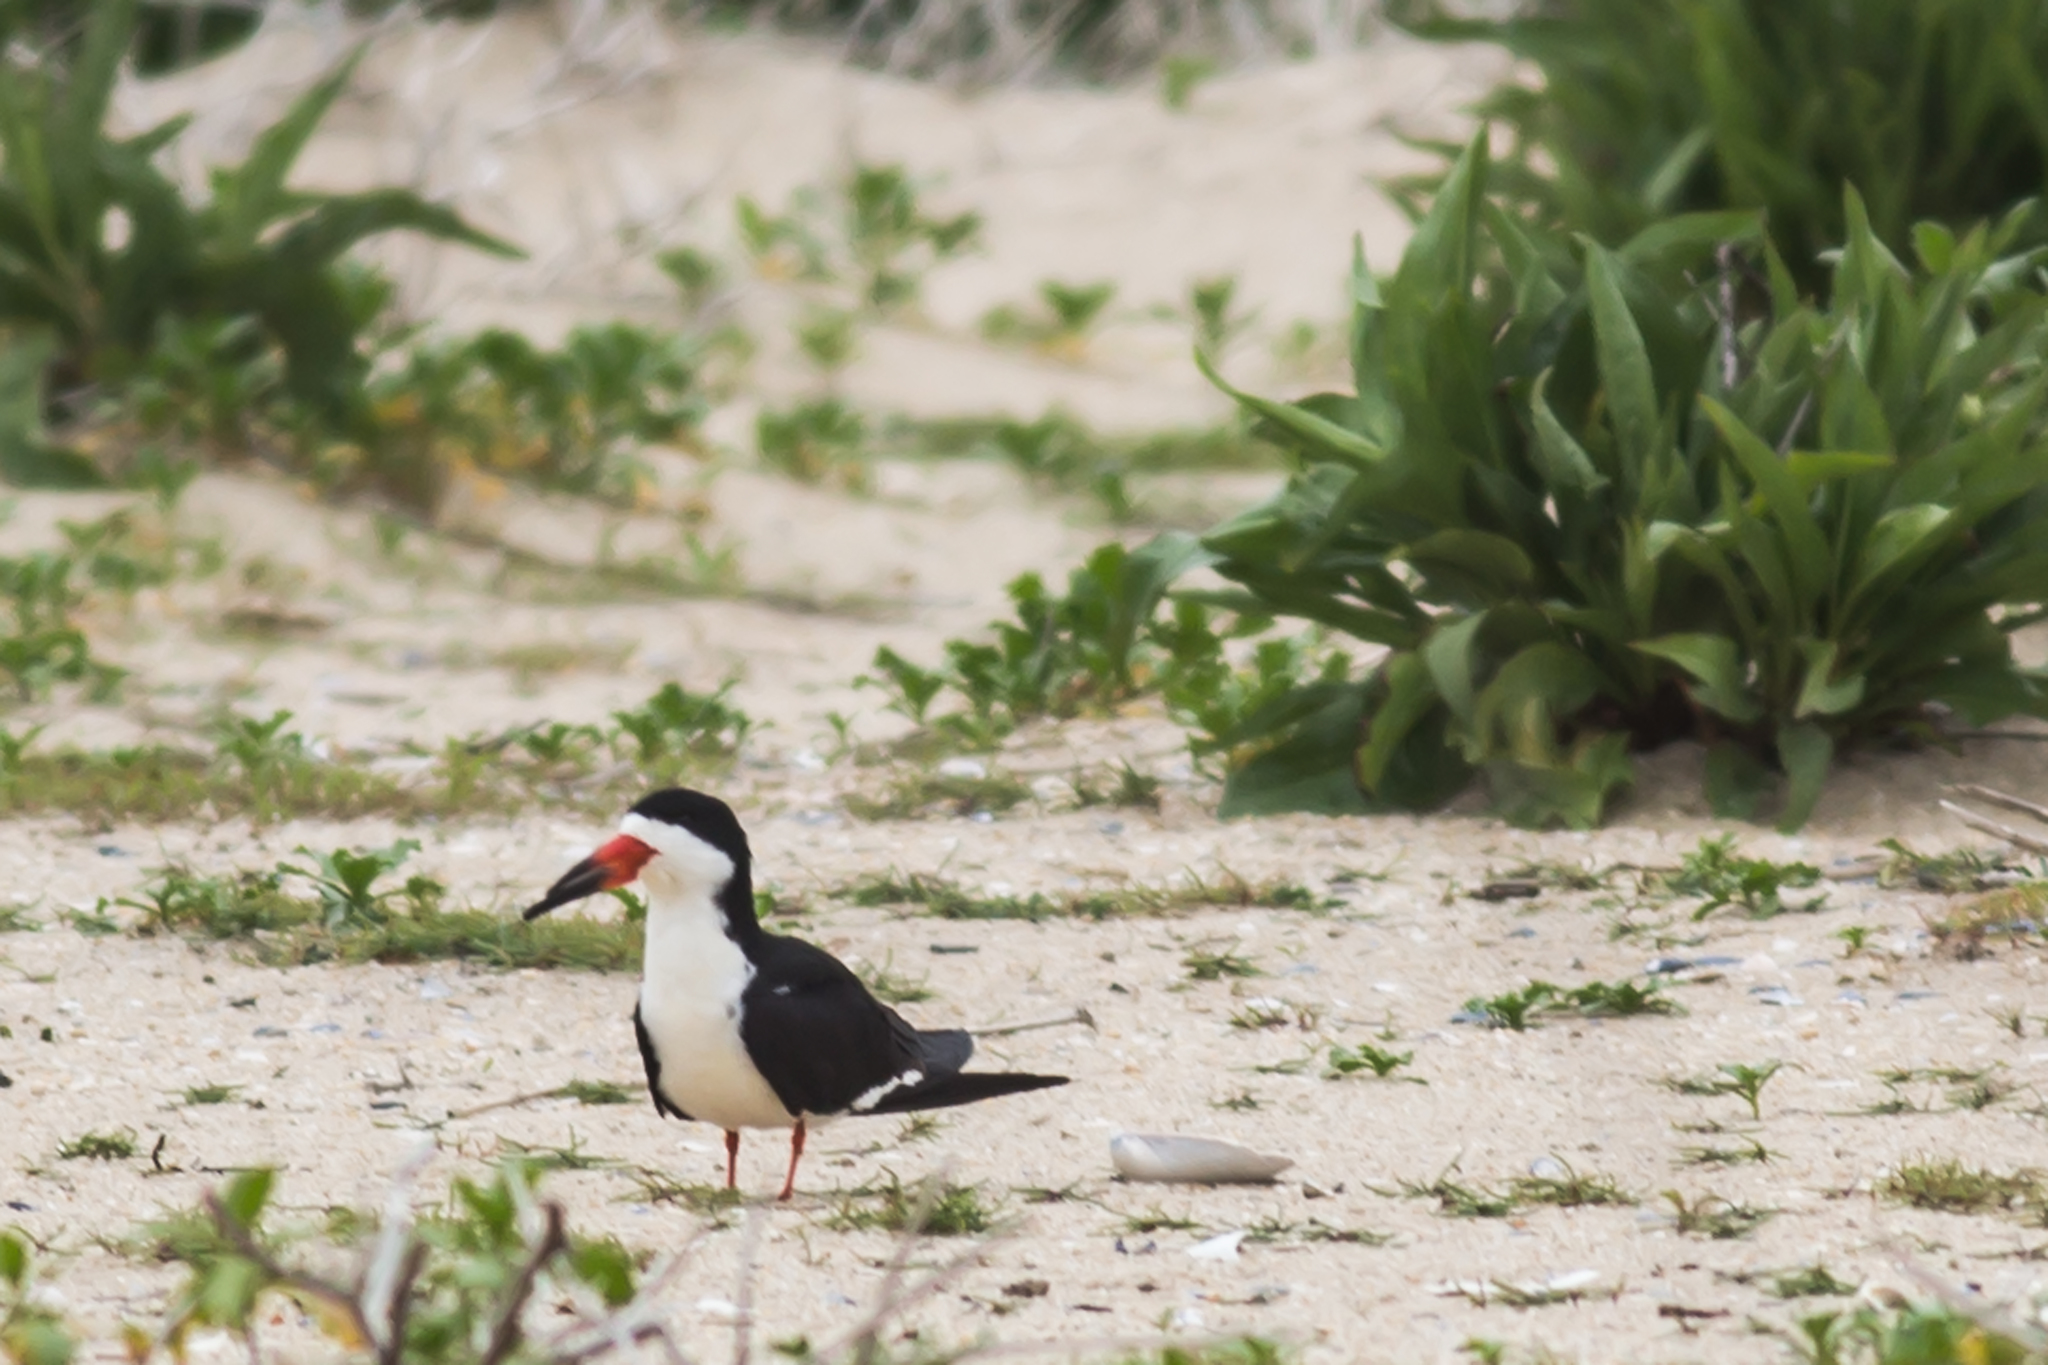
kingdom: Animalia
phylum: Chordata
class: Aves
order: Charadriiformes
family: Laridae
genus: Rynchops
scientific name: Rynchops niger
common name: Black skimmer
